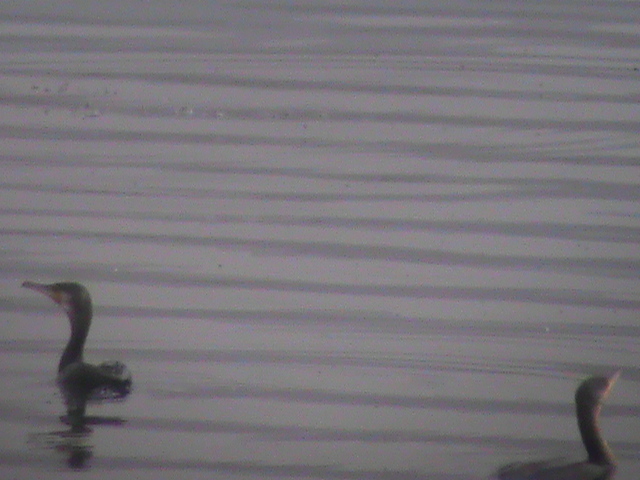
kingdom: Animalia
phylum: Chordata
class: Aves
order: Suliformes
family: Phalacrocoracidae
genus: Phalacrocorax
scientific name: Phalacrocorax fuscicollis
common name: Indian cormorant
